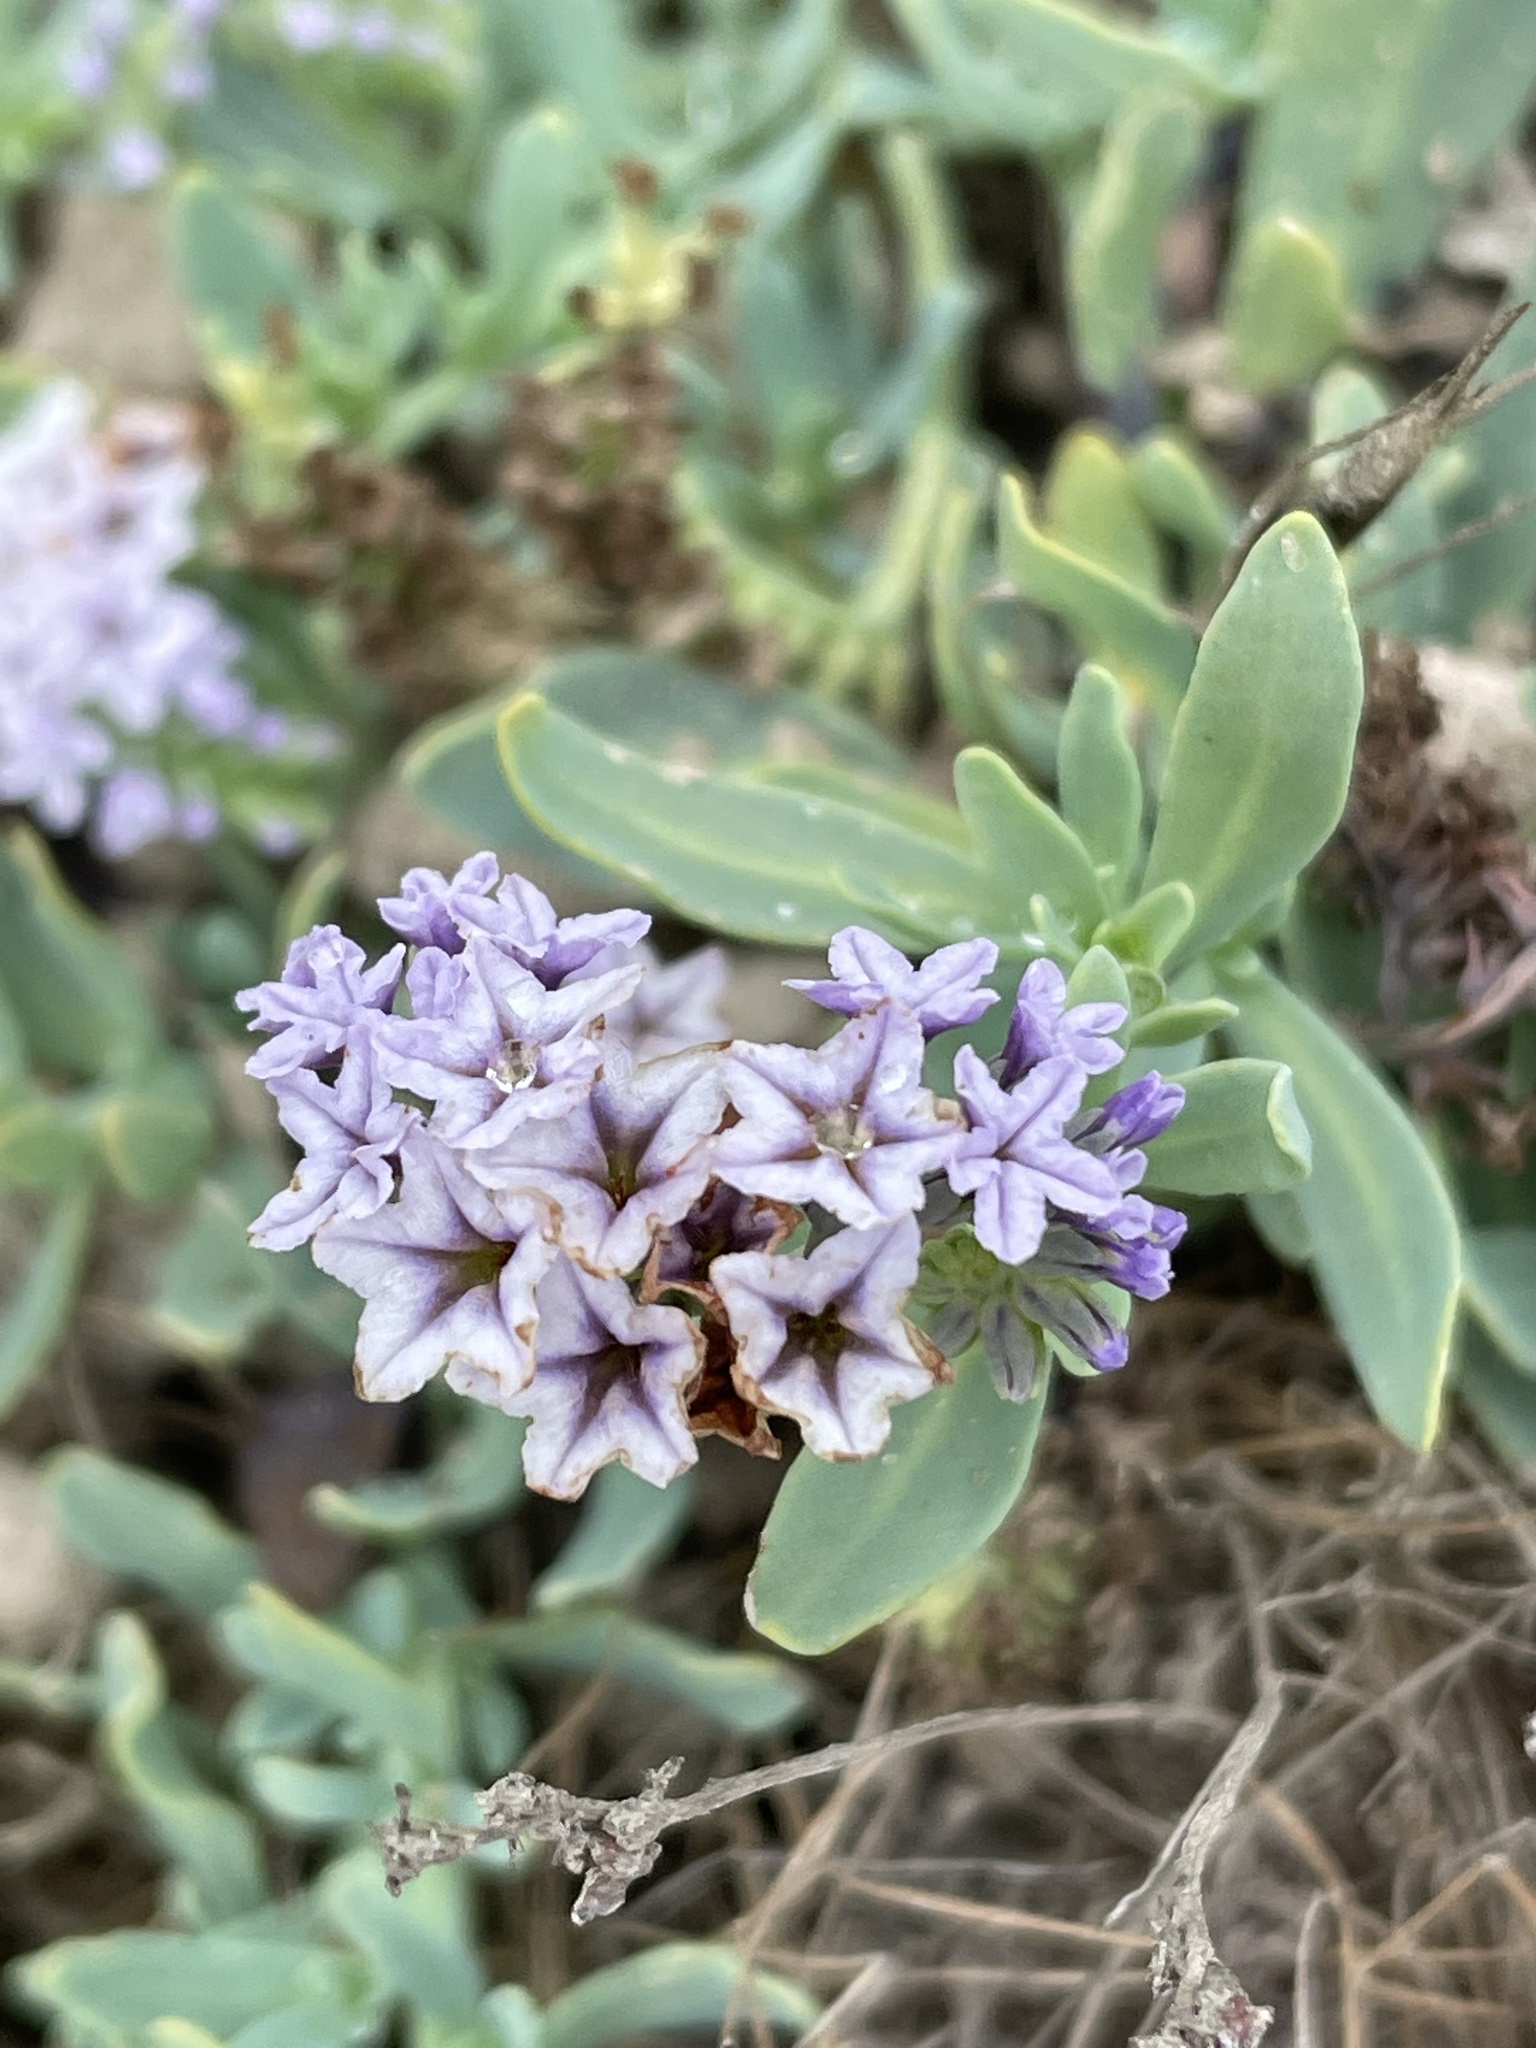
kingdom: Plantae
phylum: Tracheophyta
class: Magnoliopsida
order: Boraginales
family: Heliotropiaceae
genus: Heliotropium
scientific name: Heliotropium curassavicum
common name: Seaside heliotrope
